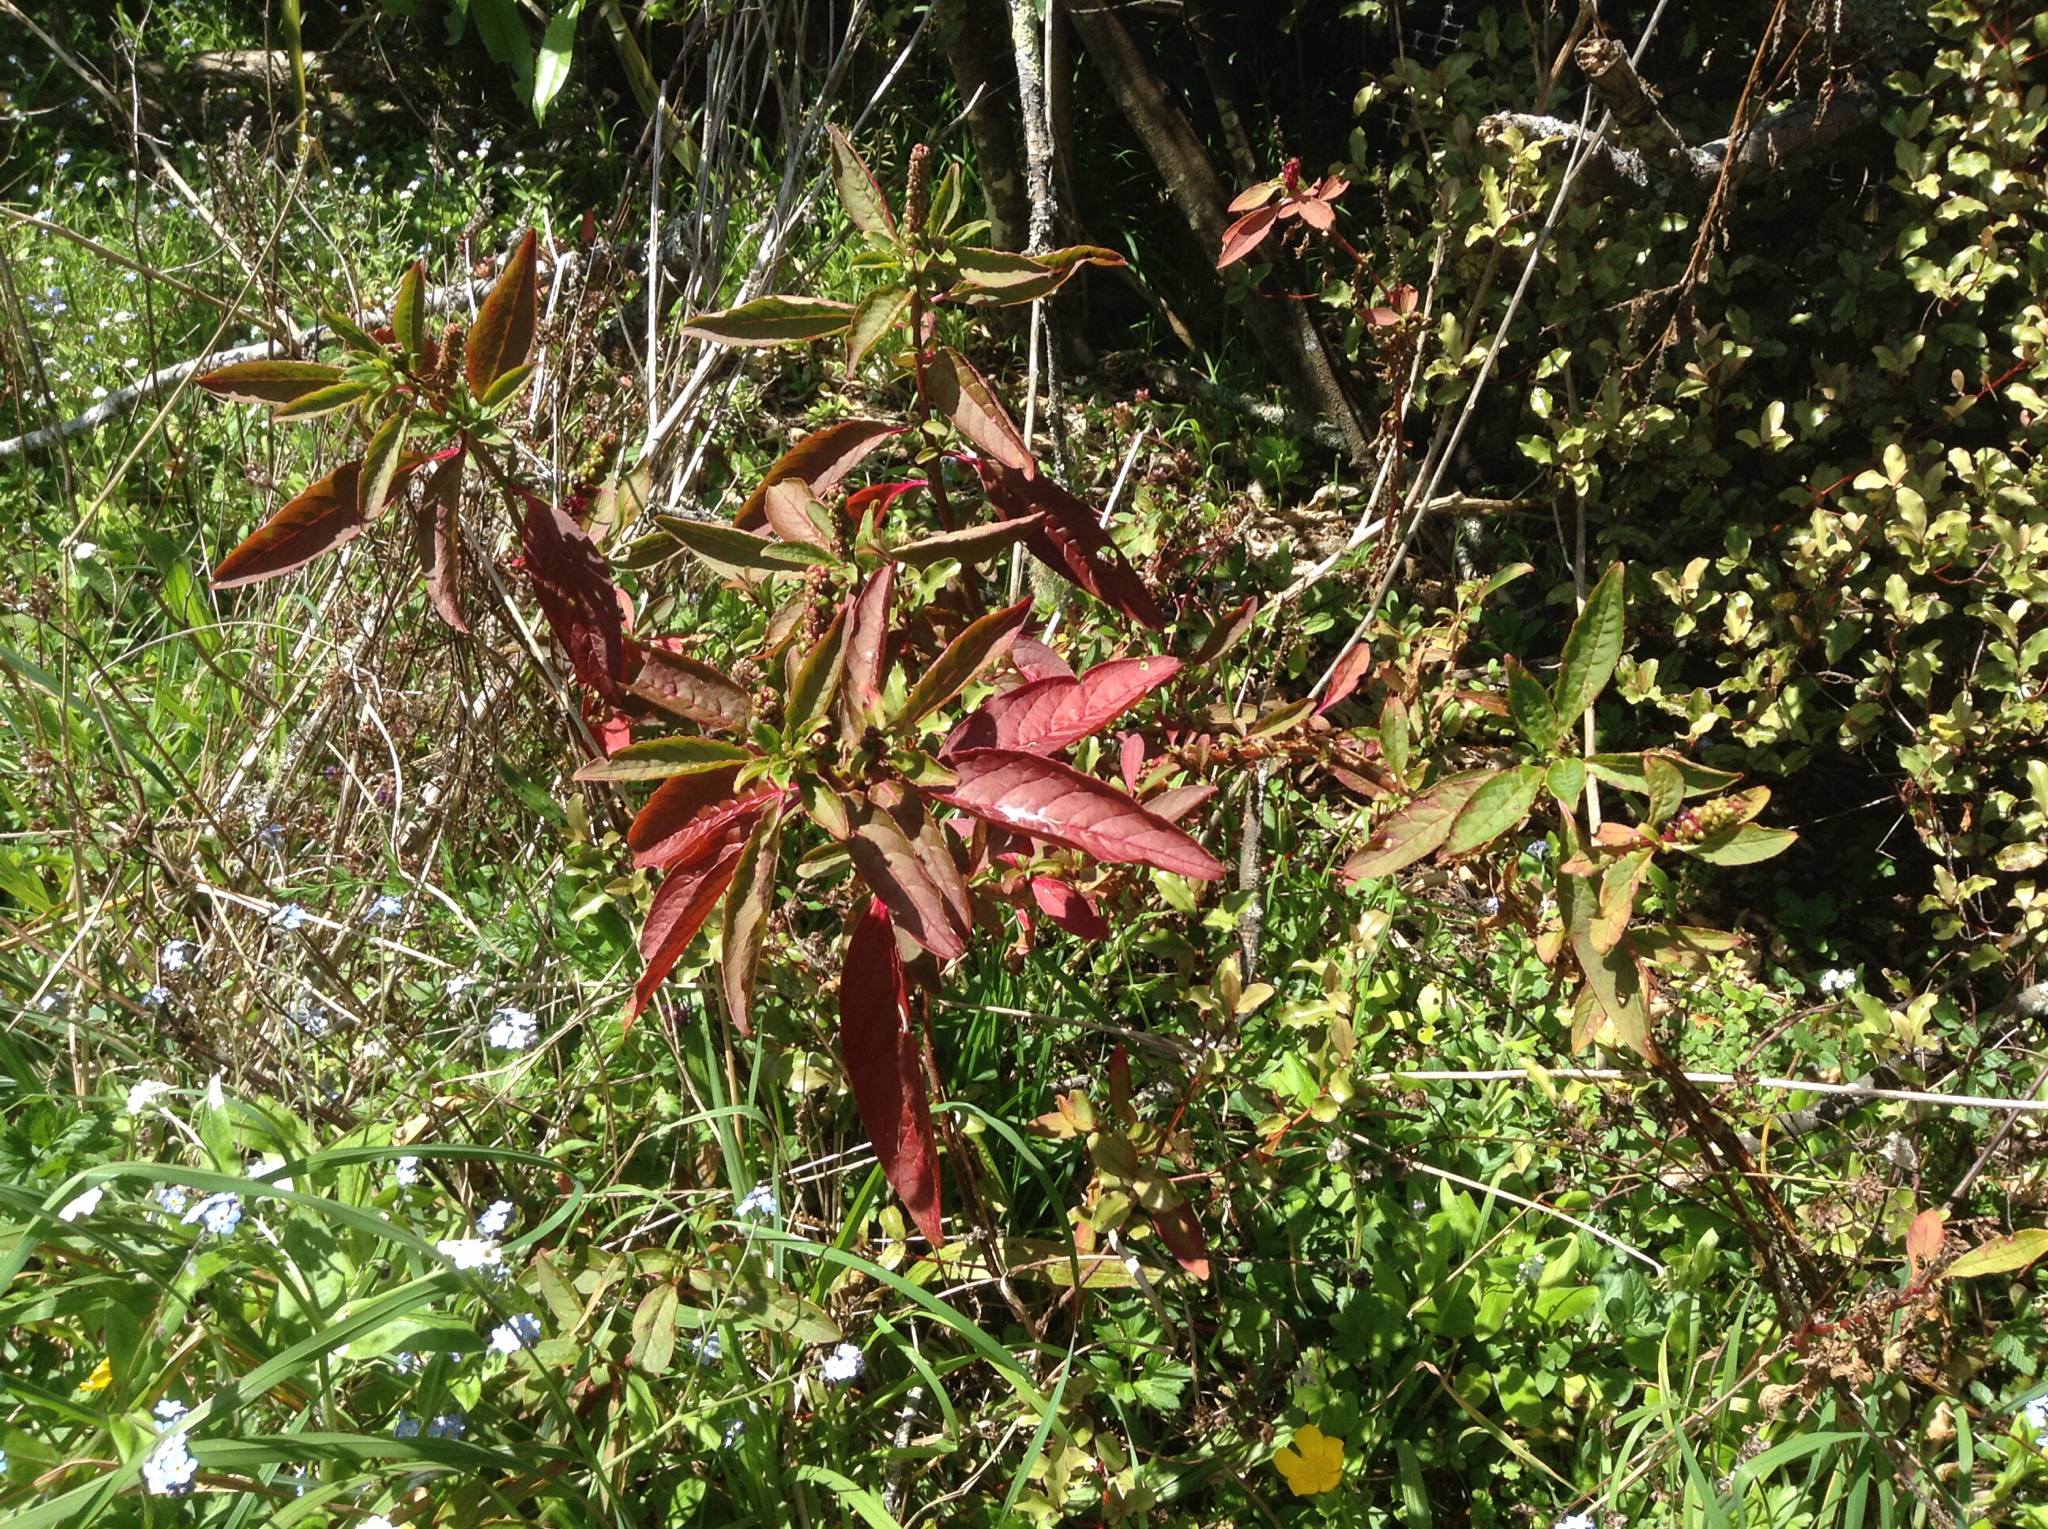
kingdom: Plantae
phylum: Tracheophyta
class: Magnoliopsida
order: Caryophyllales
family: Phytolaccaceae
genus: Phytolacca
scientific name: Phytolacca icosandra
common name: Button pokeweed
